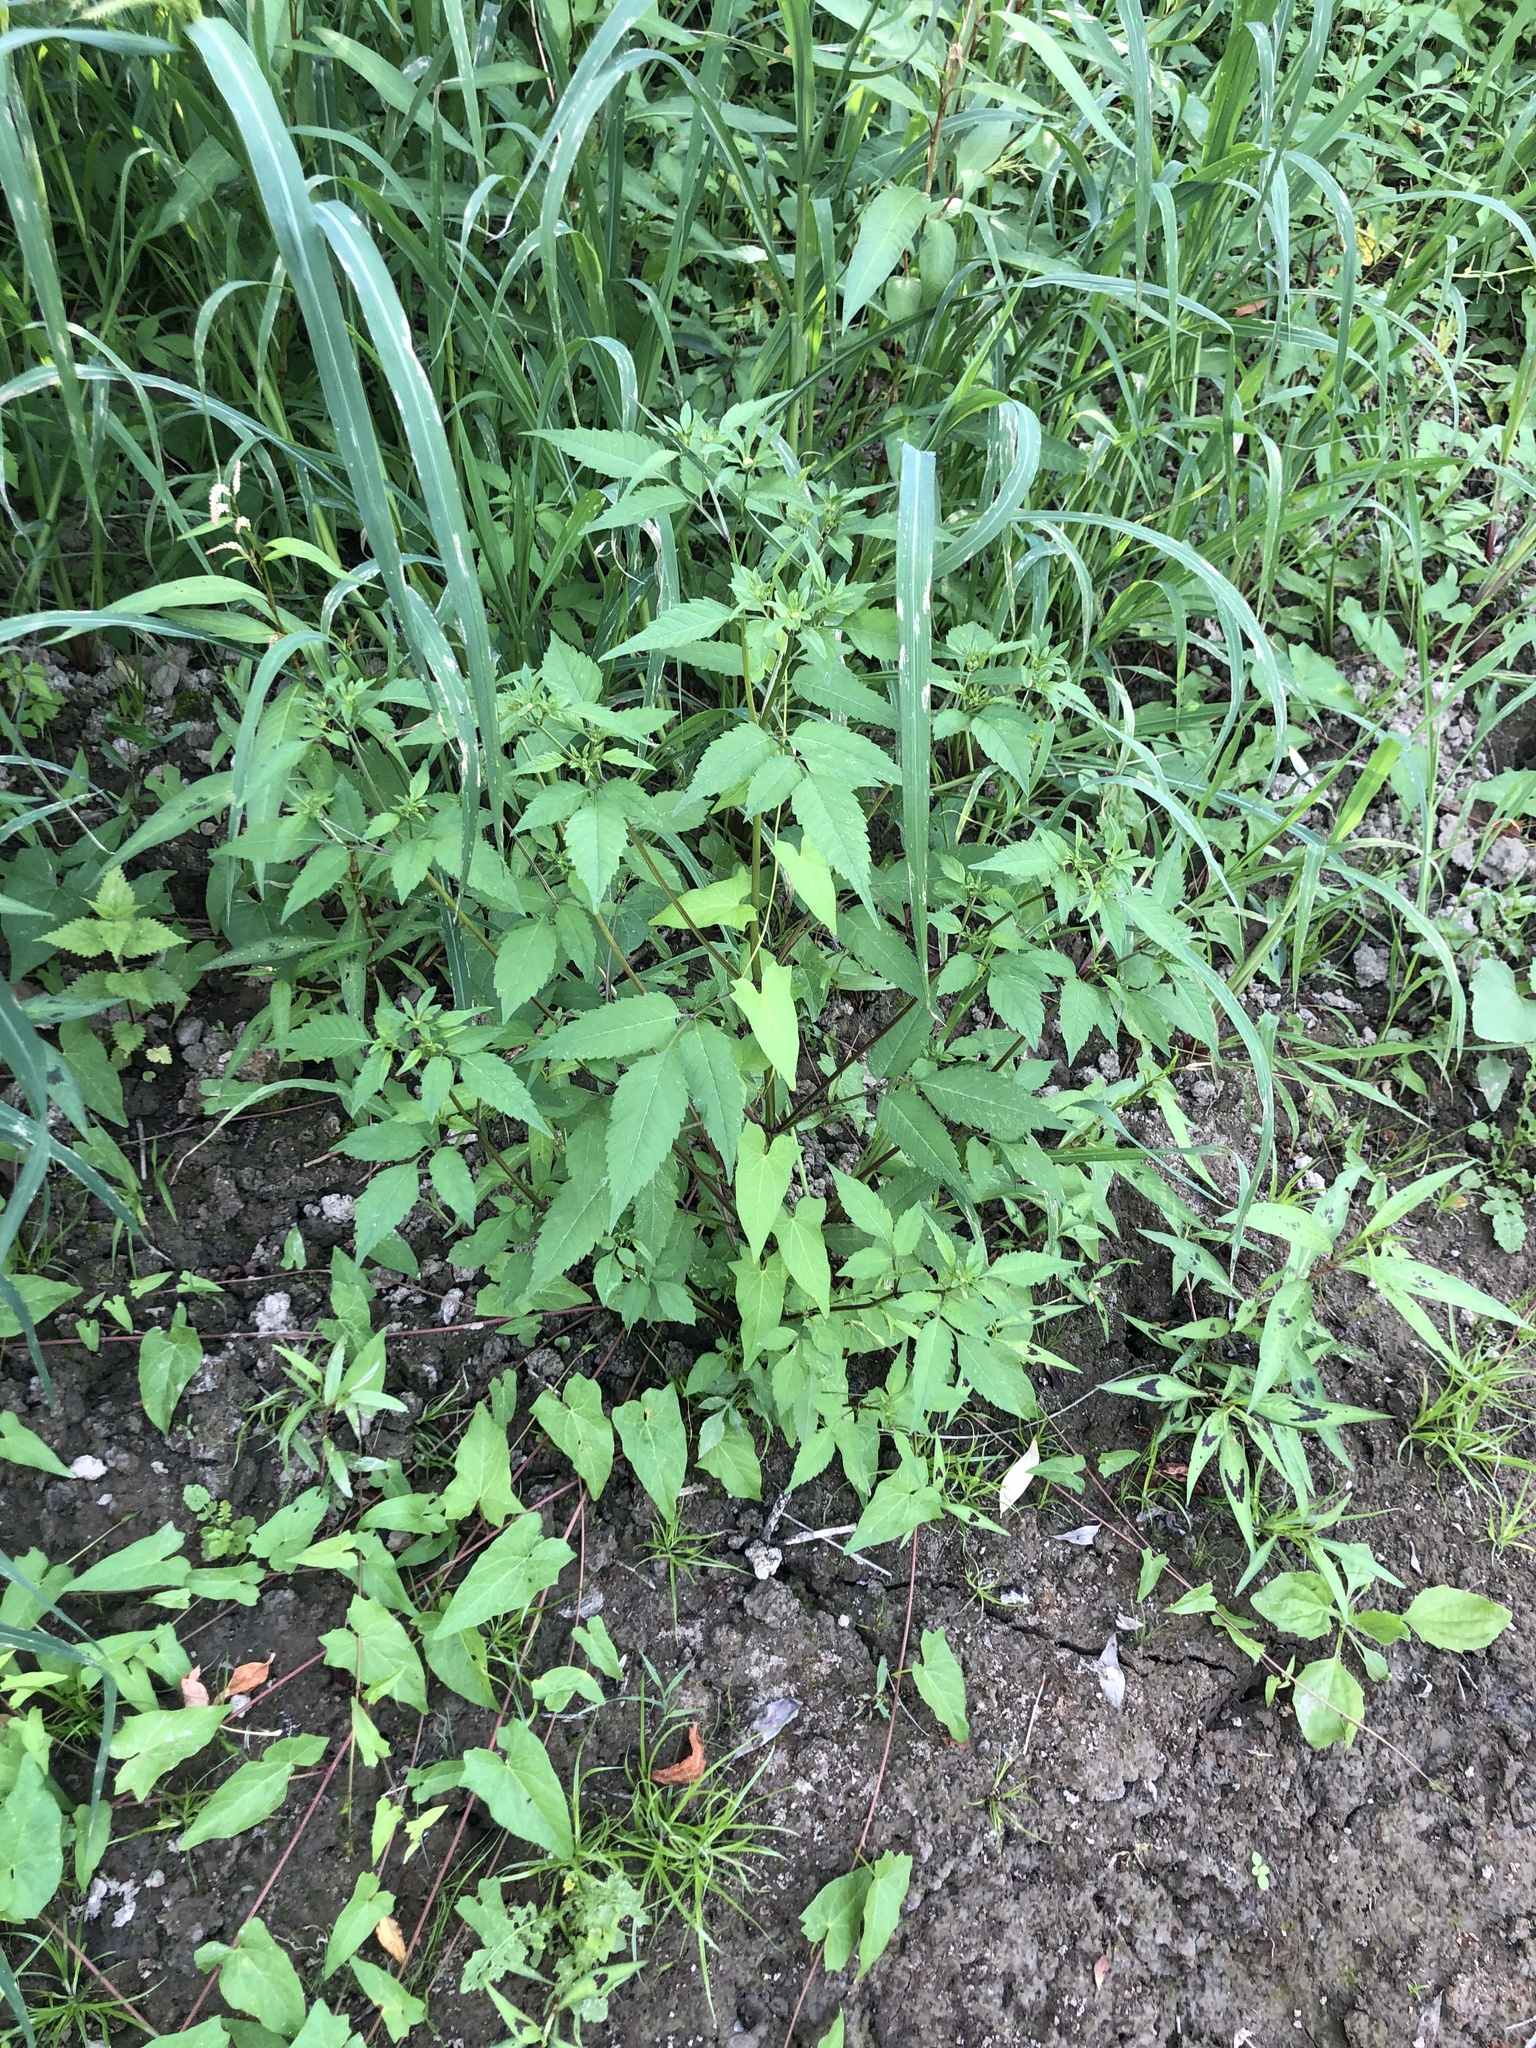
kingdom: Plantae
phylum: Tracheophyta
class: Magnoliopsida
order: Asterales
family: Asteraceae
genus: Bidens
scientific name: Bidens frondosa
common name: Beggarticks
